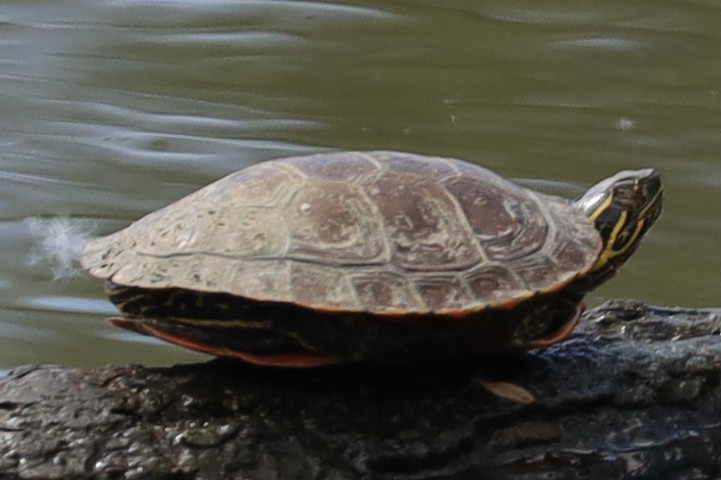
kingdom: Animalia
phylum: Chordata
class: Testudines
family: Emydidae
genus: Chrysemys
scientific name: Chrysemys picta
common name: Painted turtle
